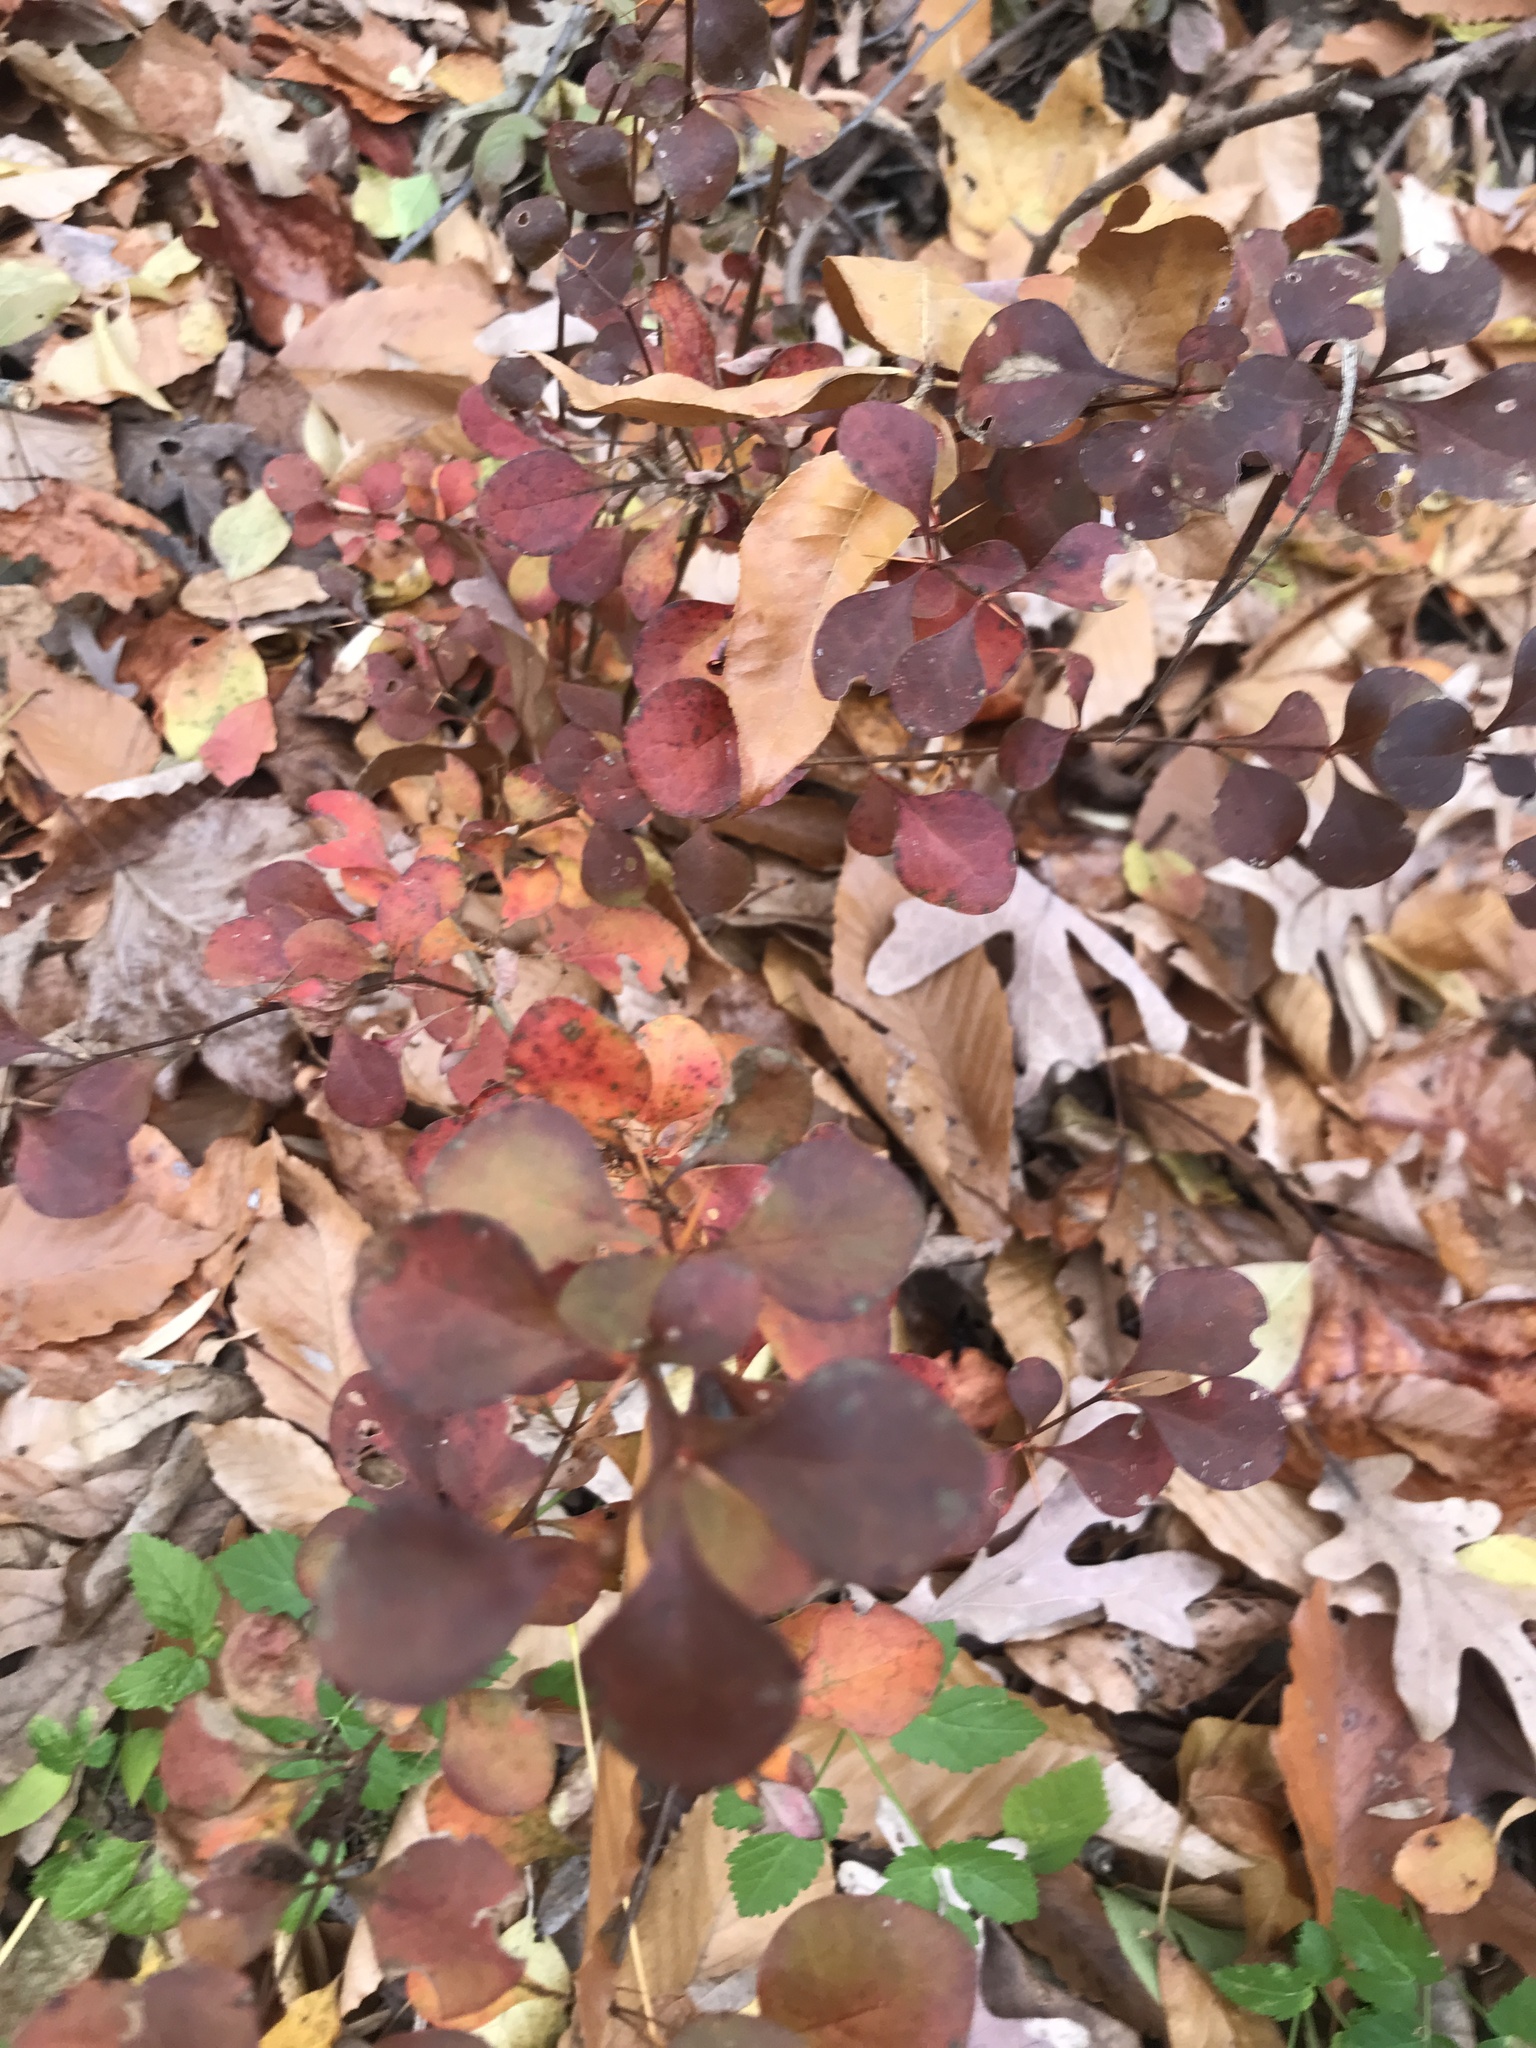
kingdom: Plantae
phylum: Tracheophyta
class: Magnoliopsida
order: Ranunculales
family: Berberidaceae
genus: Berberis
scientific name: Berberis thunbergii
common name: Japanese barberry
